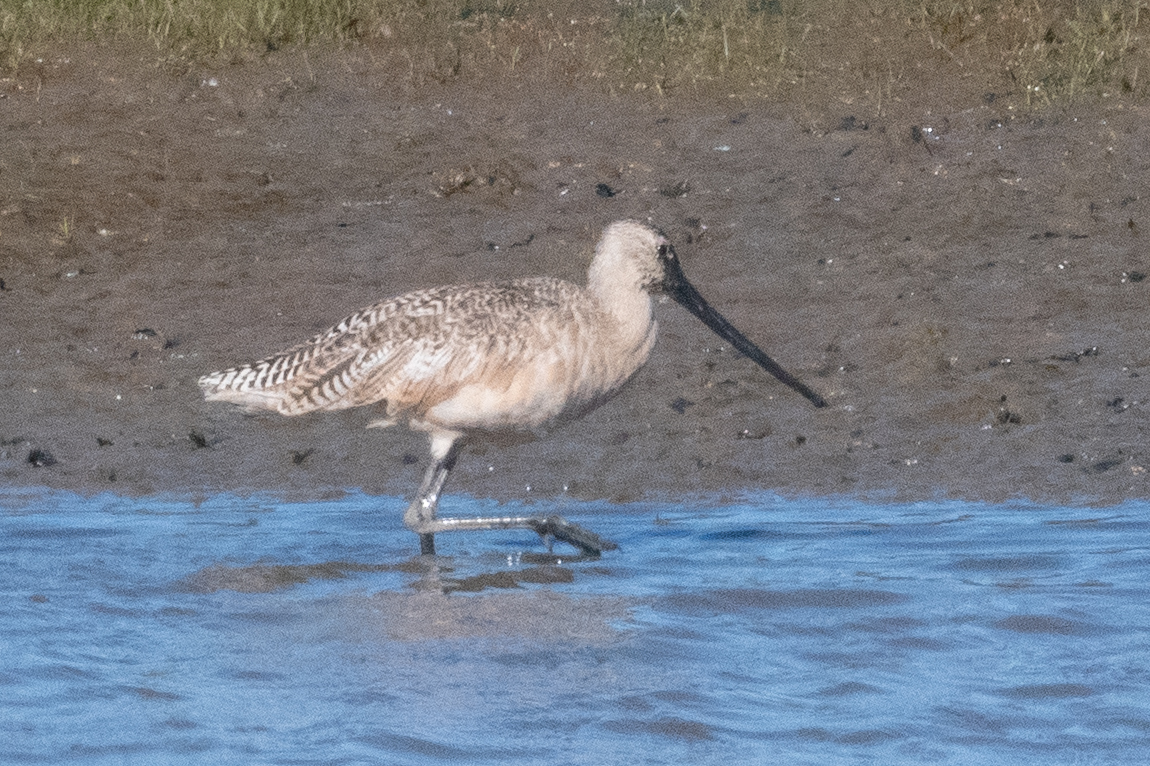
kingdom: Animalia
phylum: Chordata
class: Aves
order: Charadriiformes
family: Scolopacidae
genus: Limosa
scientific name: Limosa fedoa
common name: Marbled godwit
